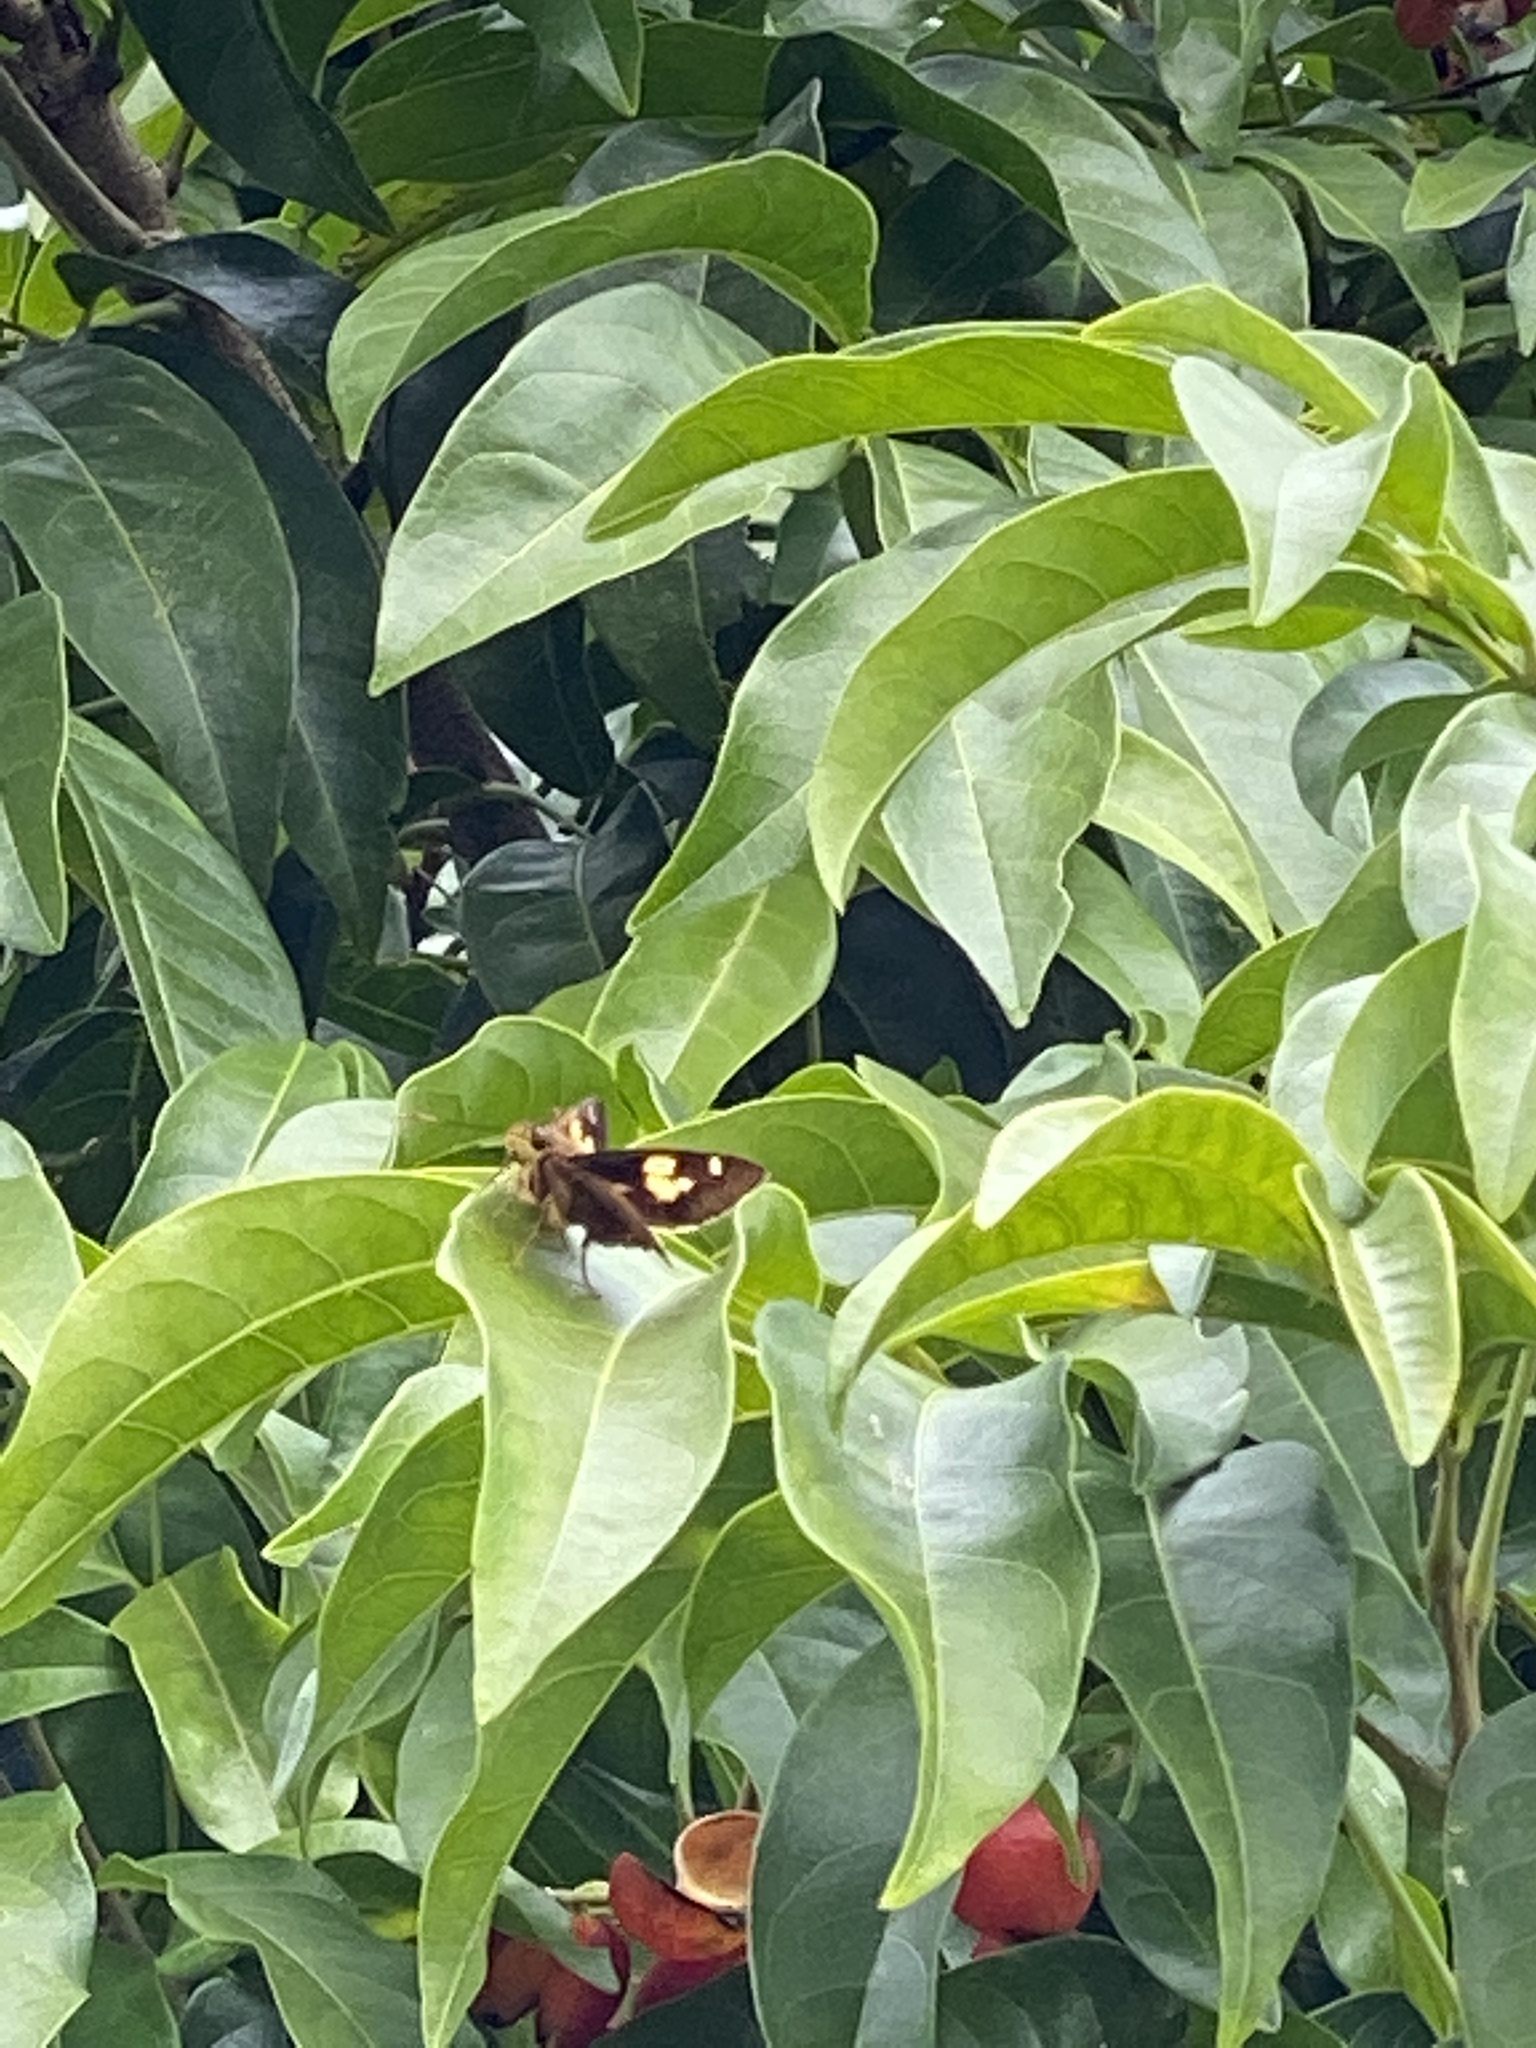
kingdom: Animalia
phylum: Arthropoda
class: Insecta
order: Lepidoptera
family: Hesperiidae
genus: Trapezites
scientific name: Trapezites symmomus
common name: Splendid ochre
